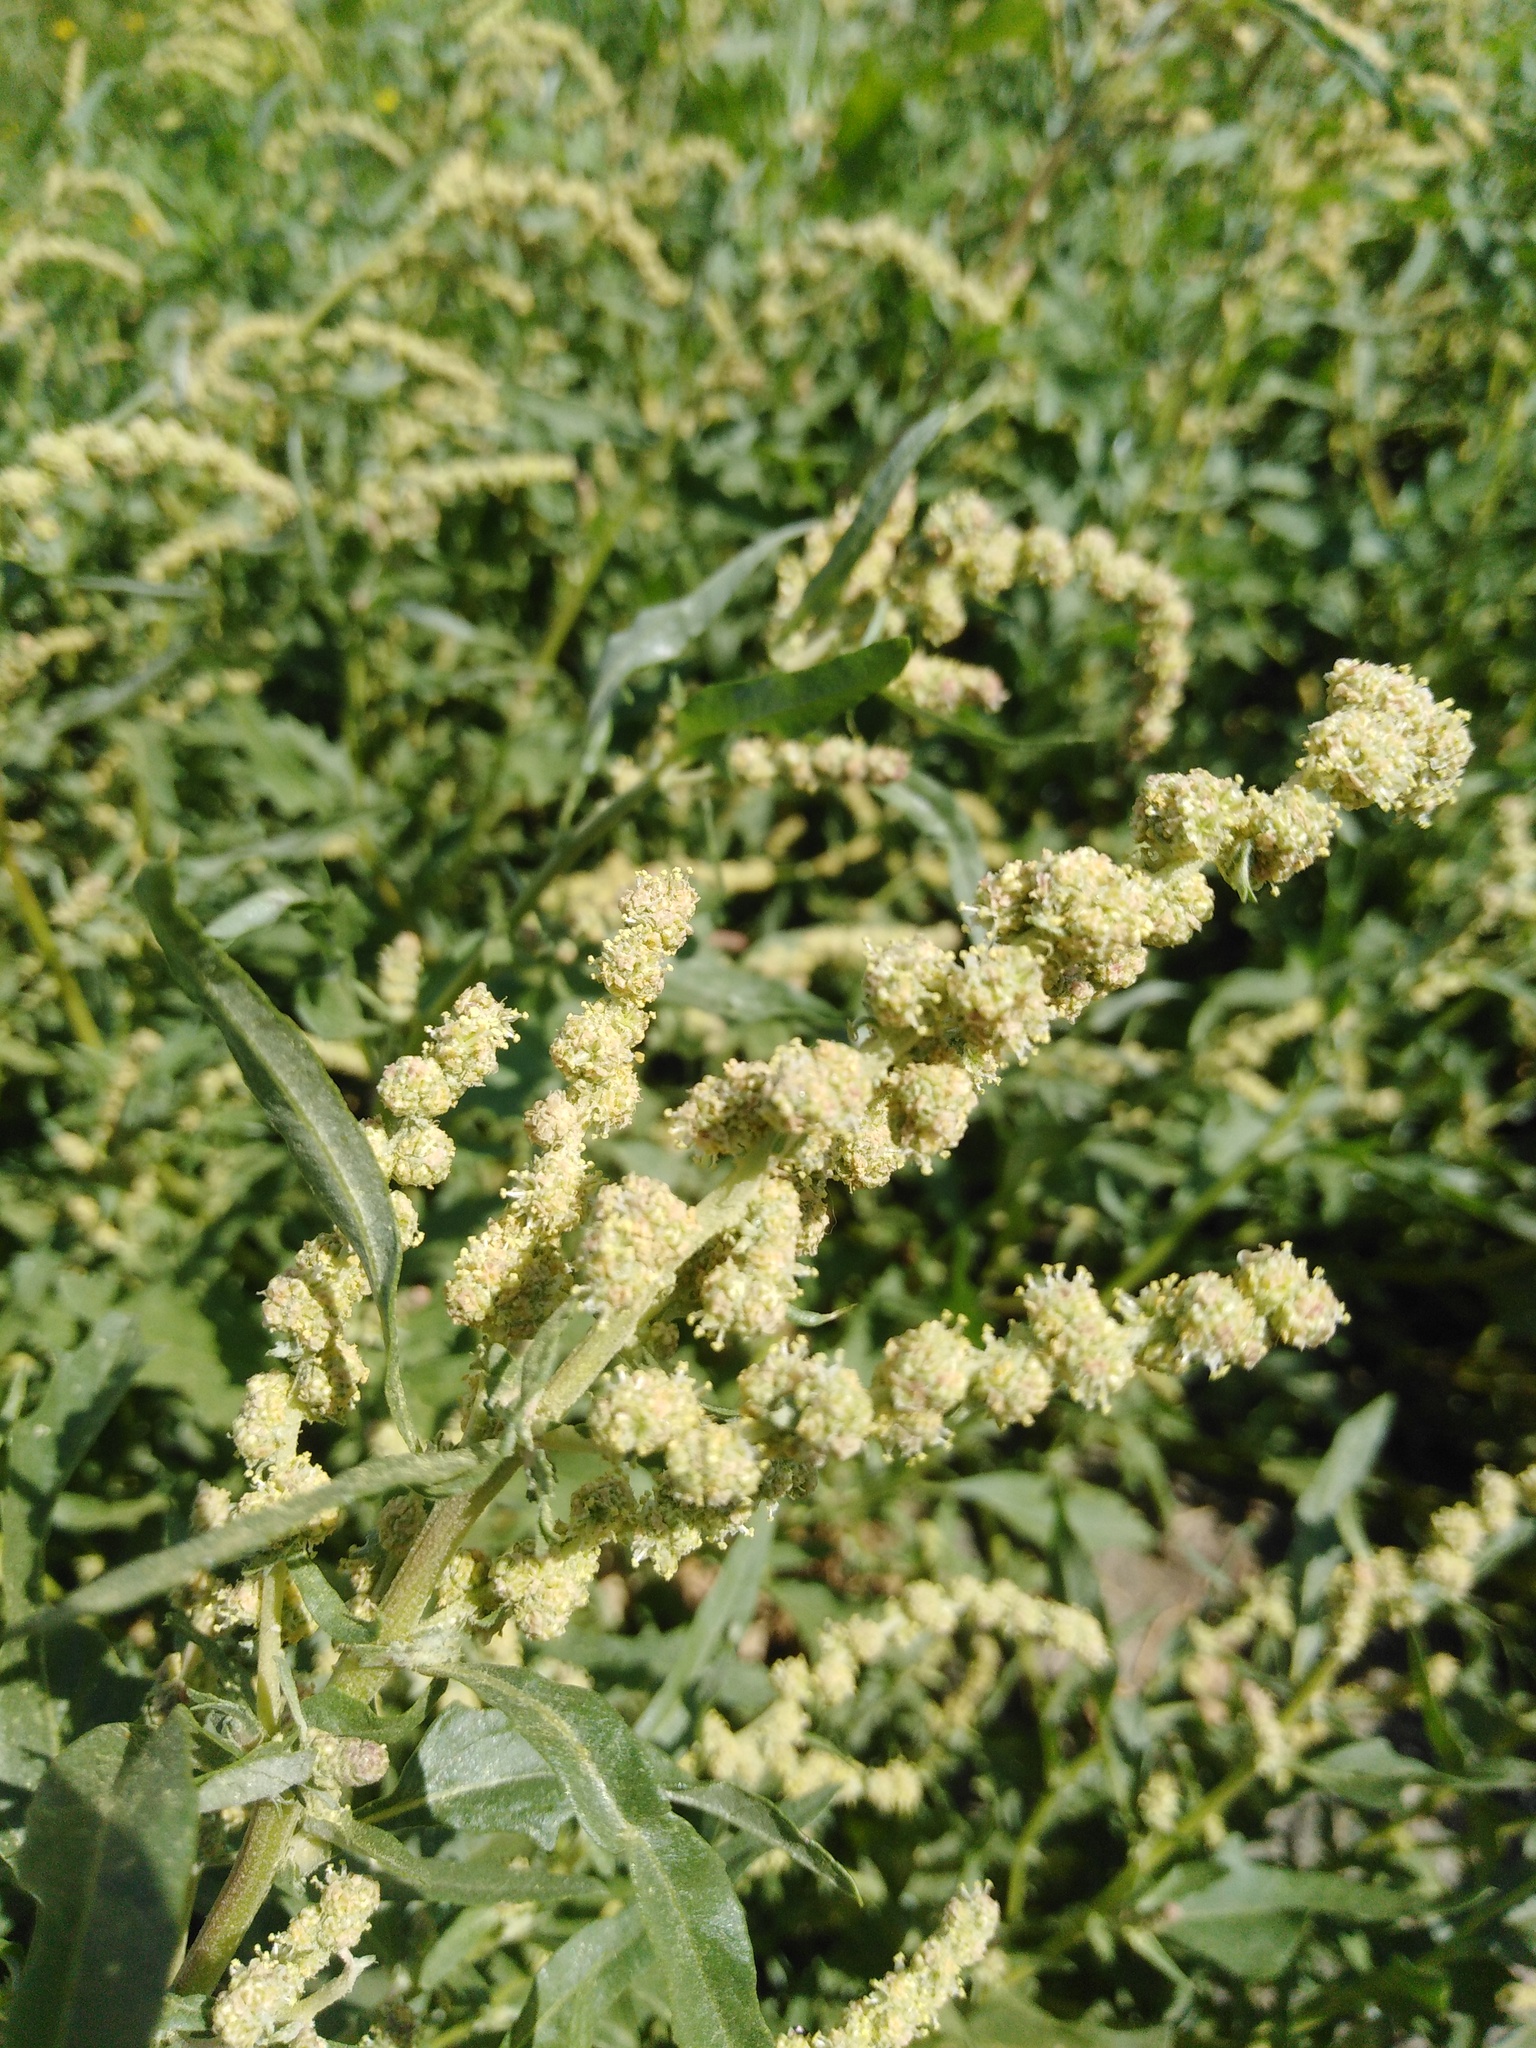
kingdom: Plantae
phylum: Tracheophyta
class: Magnoliopsida
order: Caryophyllales
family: Amaranthaceae
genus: Atriplex
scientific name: Atriplex tatarica
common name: Tatarian orache
